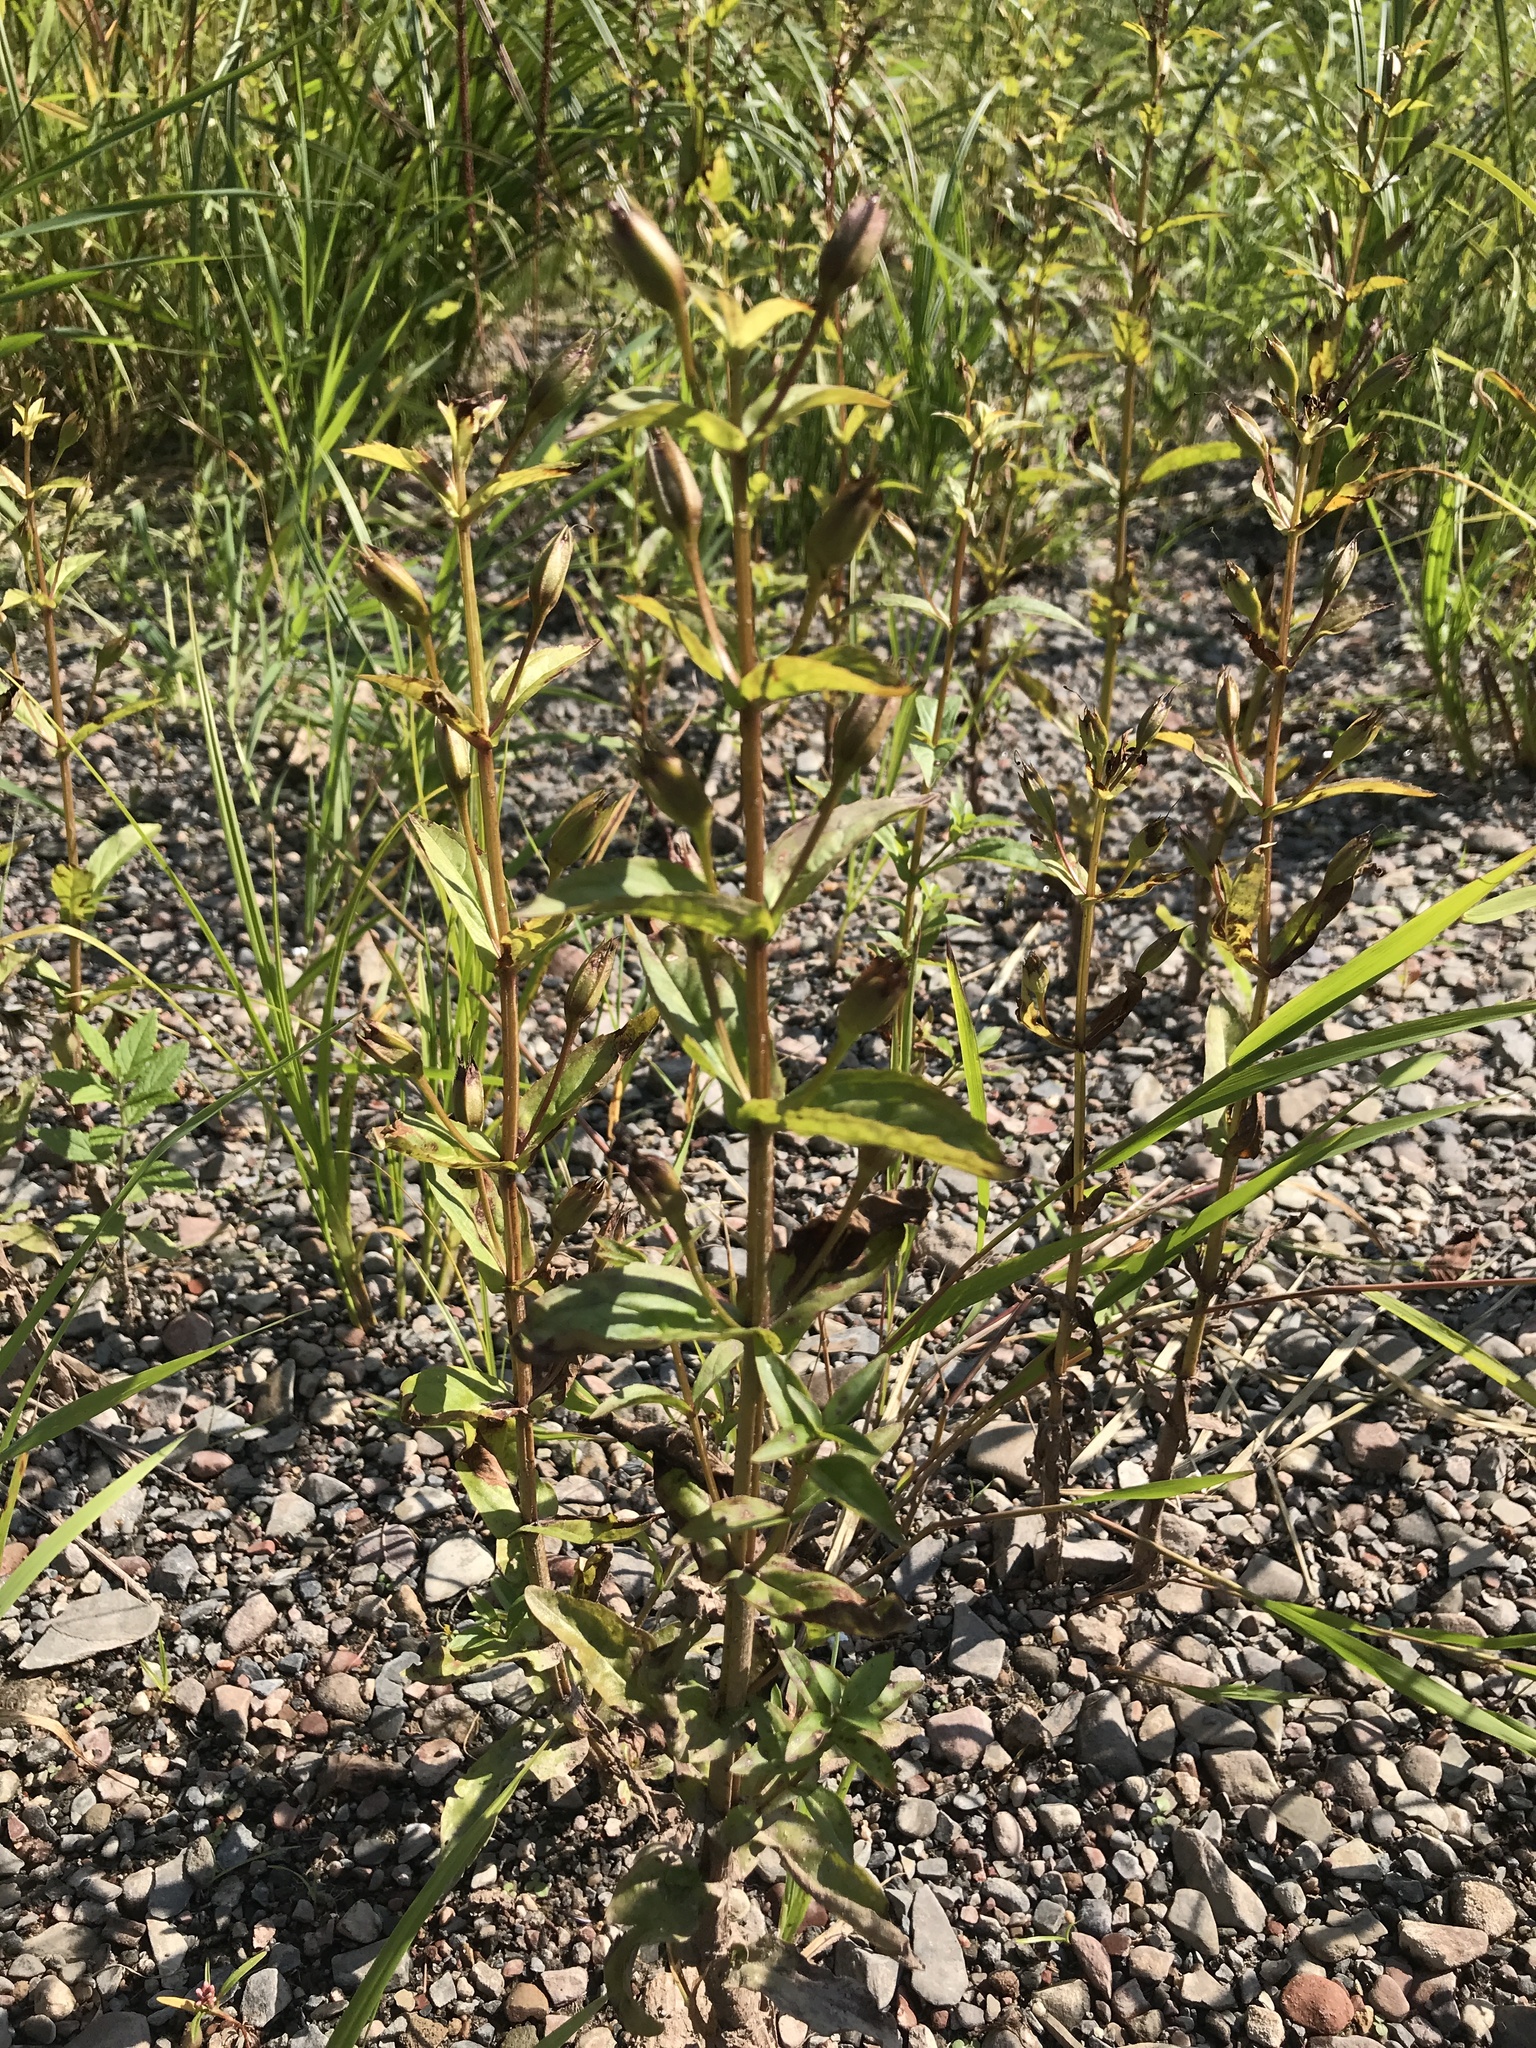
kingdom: Plantae
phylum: Tracheophyta
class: Magnoliopsida
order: Lamiales
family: Phrymaceae
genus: Mimulus
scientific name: Mimulus ringens
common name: Allegheny monkeyflower
